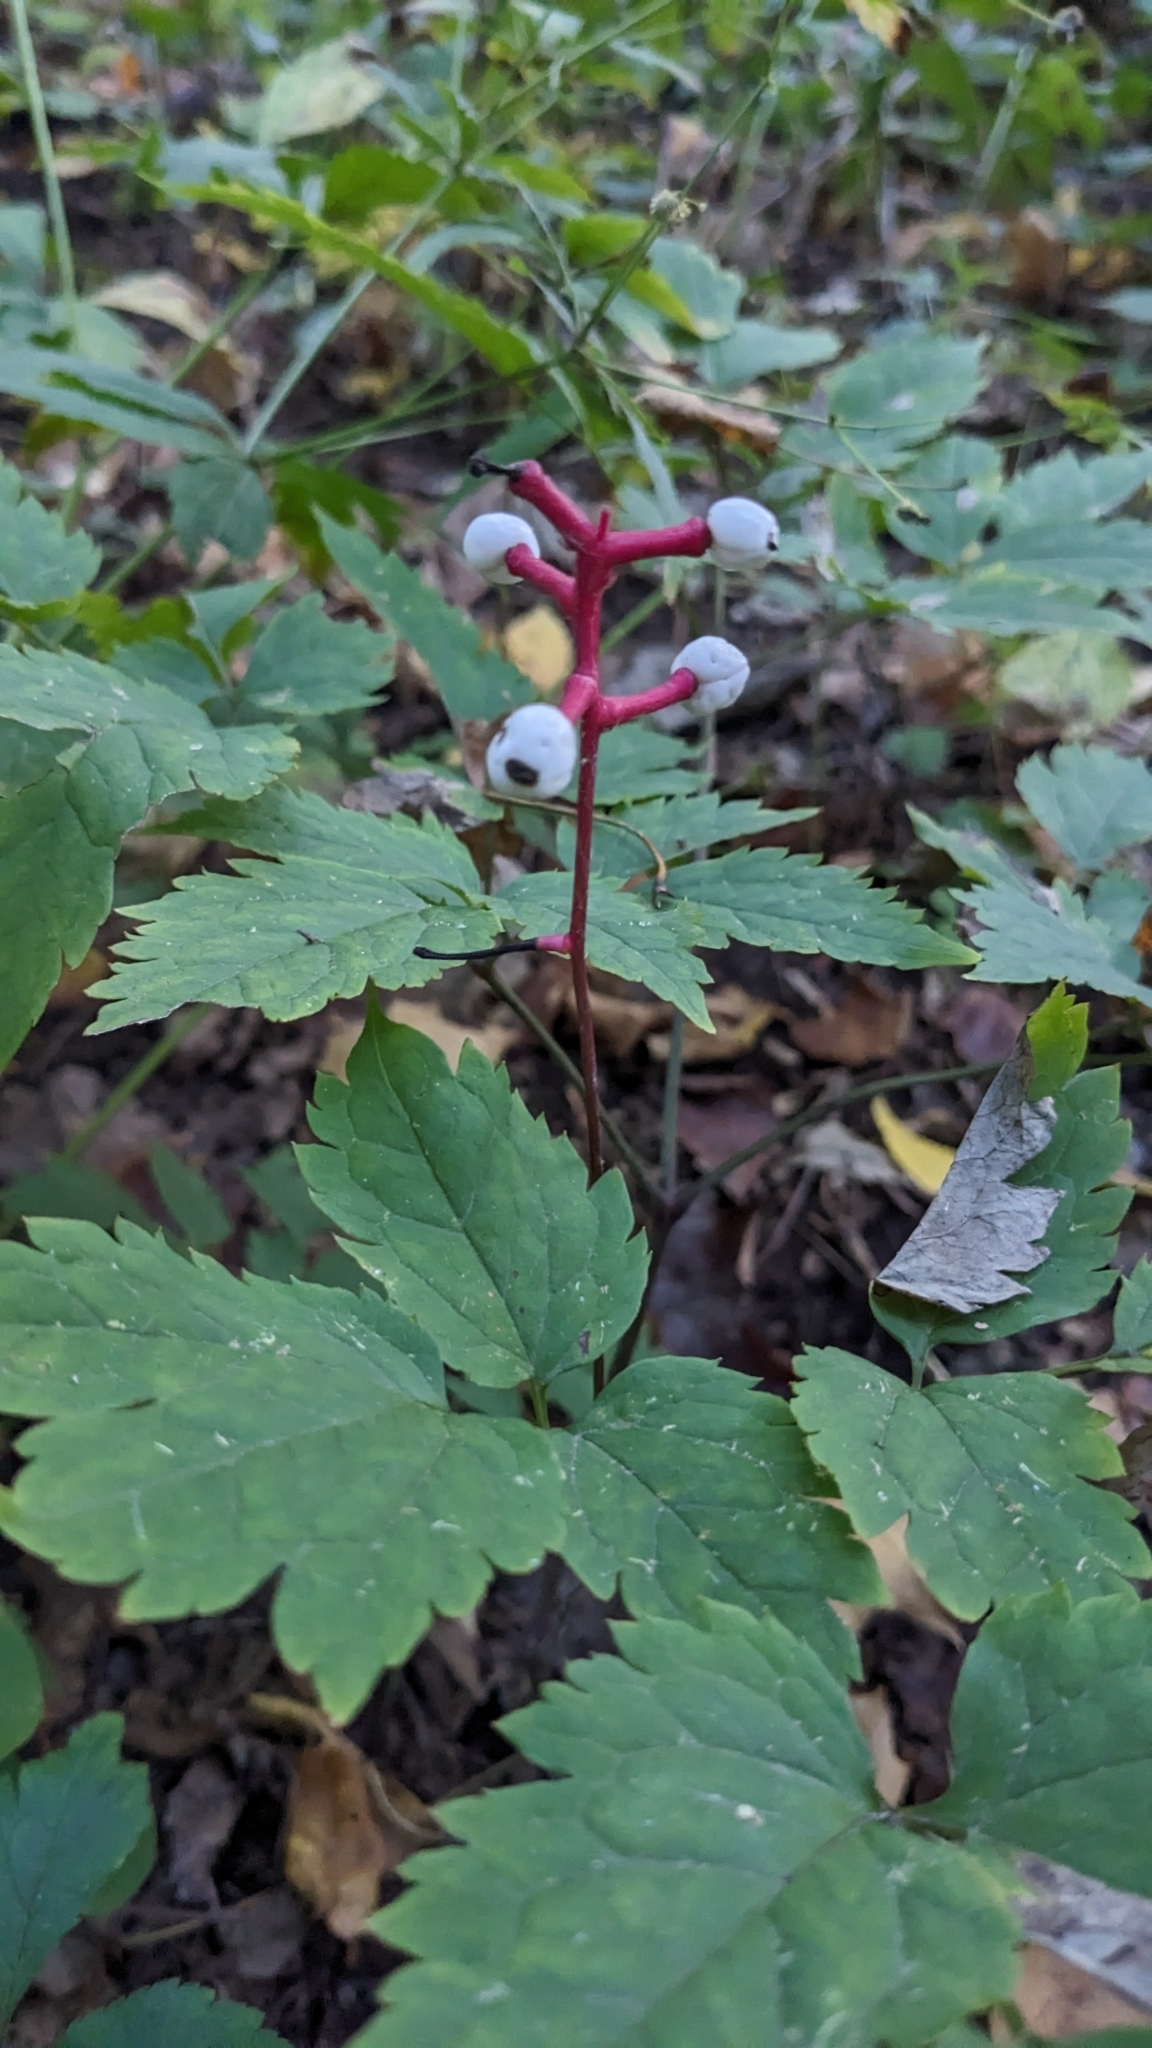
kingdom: Plantae
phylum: Tracheophyta
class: Magnoliopsida
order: Ranunculales
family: Ranunculaceae
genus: Actaea
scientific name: Actaea pachypoda
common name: Doll's-eyes
